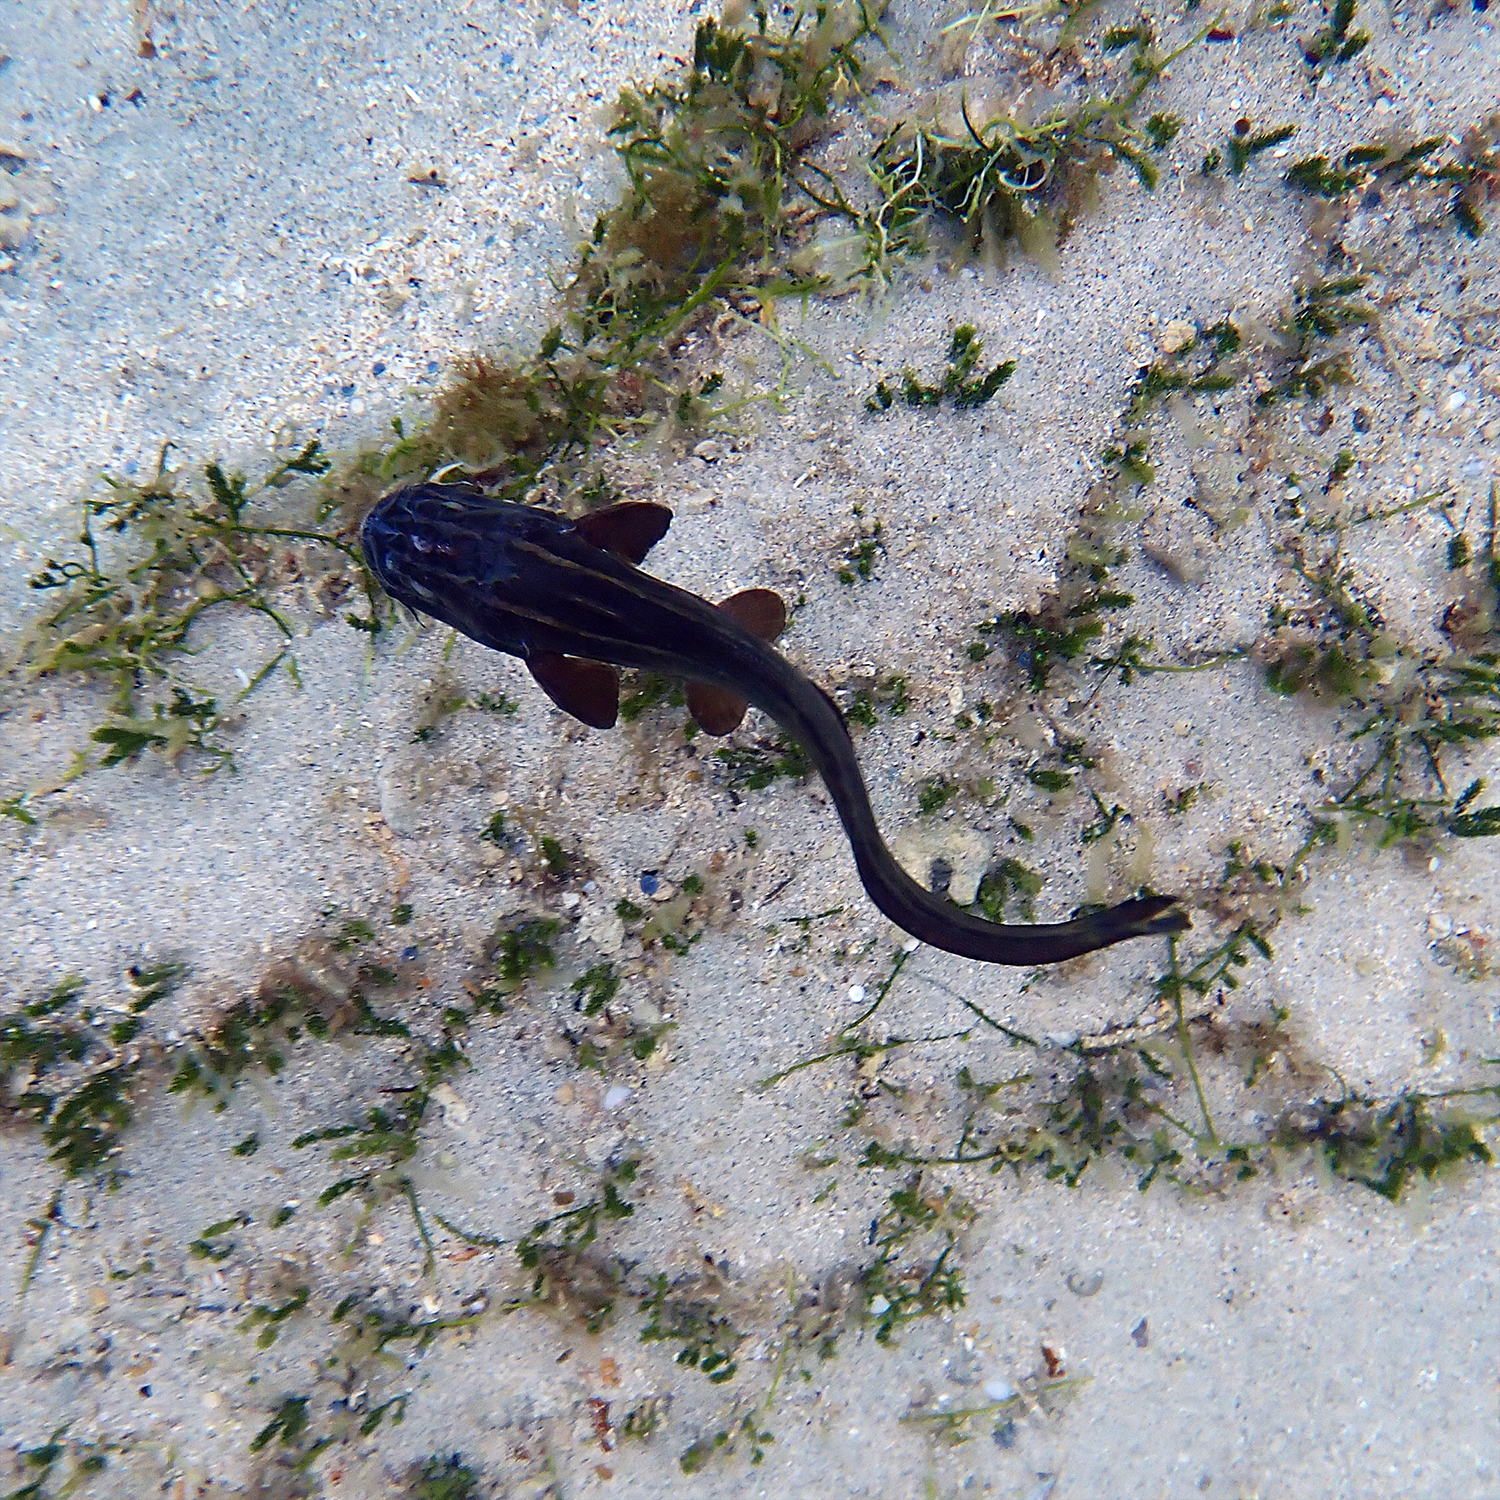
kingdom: Animalia
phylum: Chordata
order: Siluriformes
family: Plotosidae
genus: Plotosus
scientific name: Plotosus lineatus
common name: Striped eel catfish
